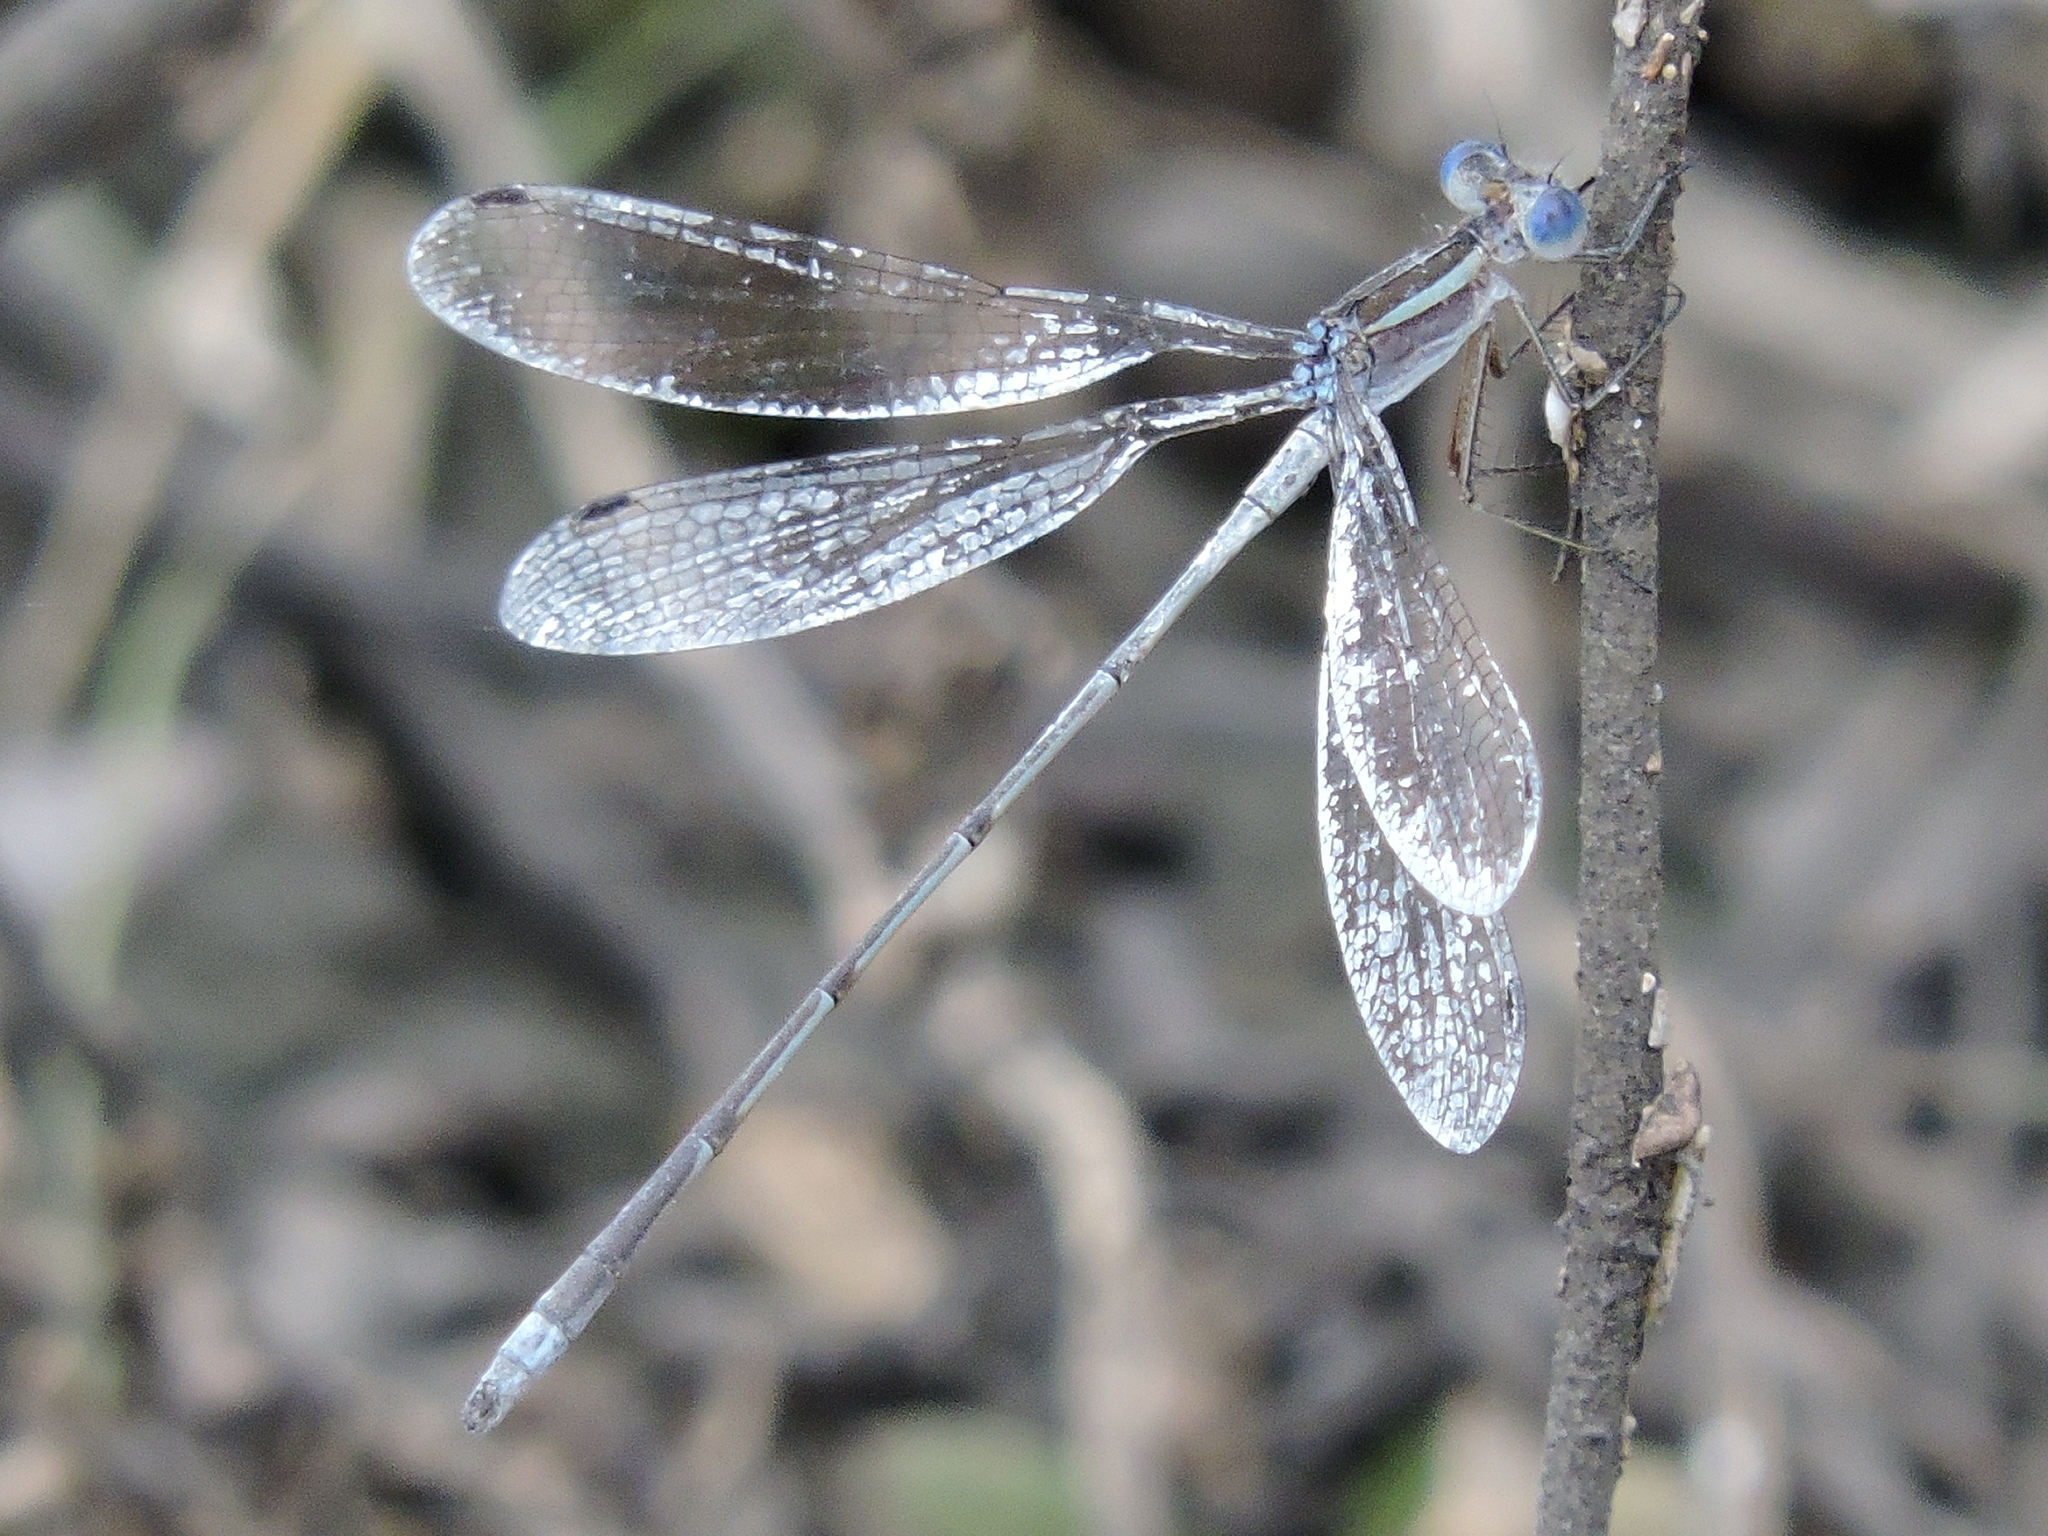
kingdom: Animalia
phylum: Arthropoda
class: Insecta
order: Odonata
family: Lestidae
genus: Lestes
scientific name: Lestes alacer
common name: Plateau spreadwing
